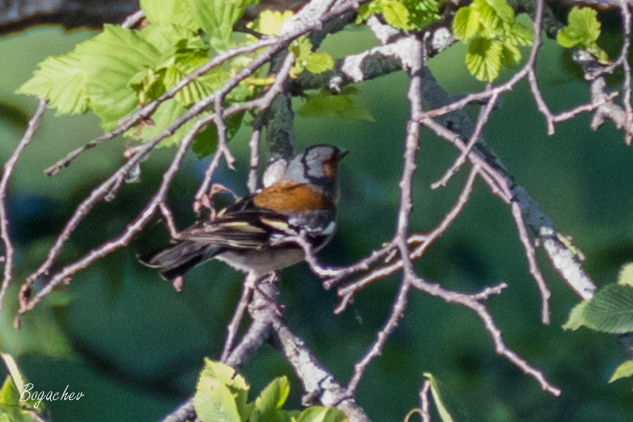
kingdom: Animalia
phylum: Chordata
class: Aves
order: Passeriformes
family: Fringillidae
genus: Fringilla
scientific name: Fringilla coelebs
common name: Common chaffinch
